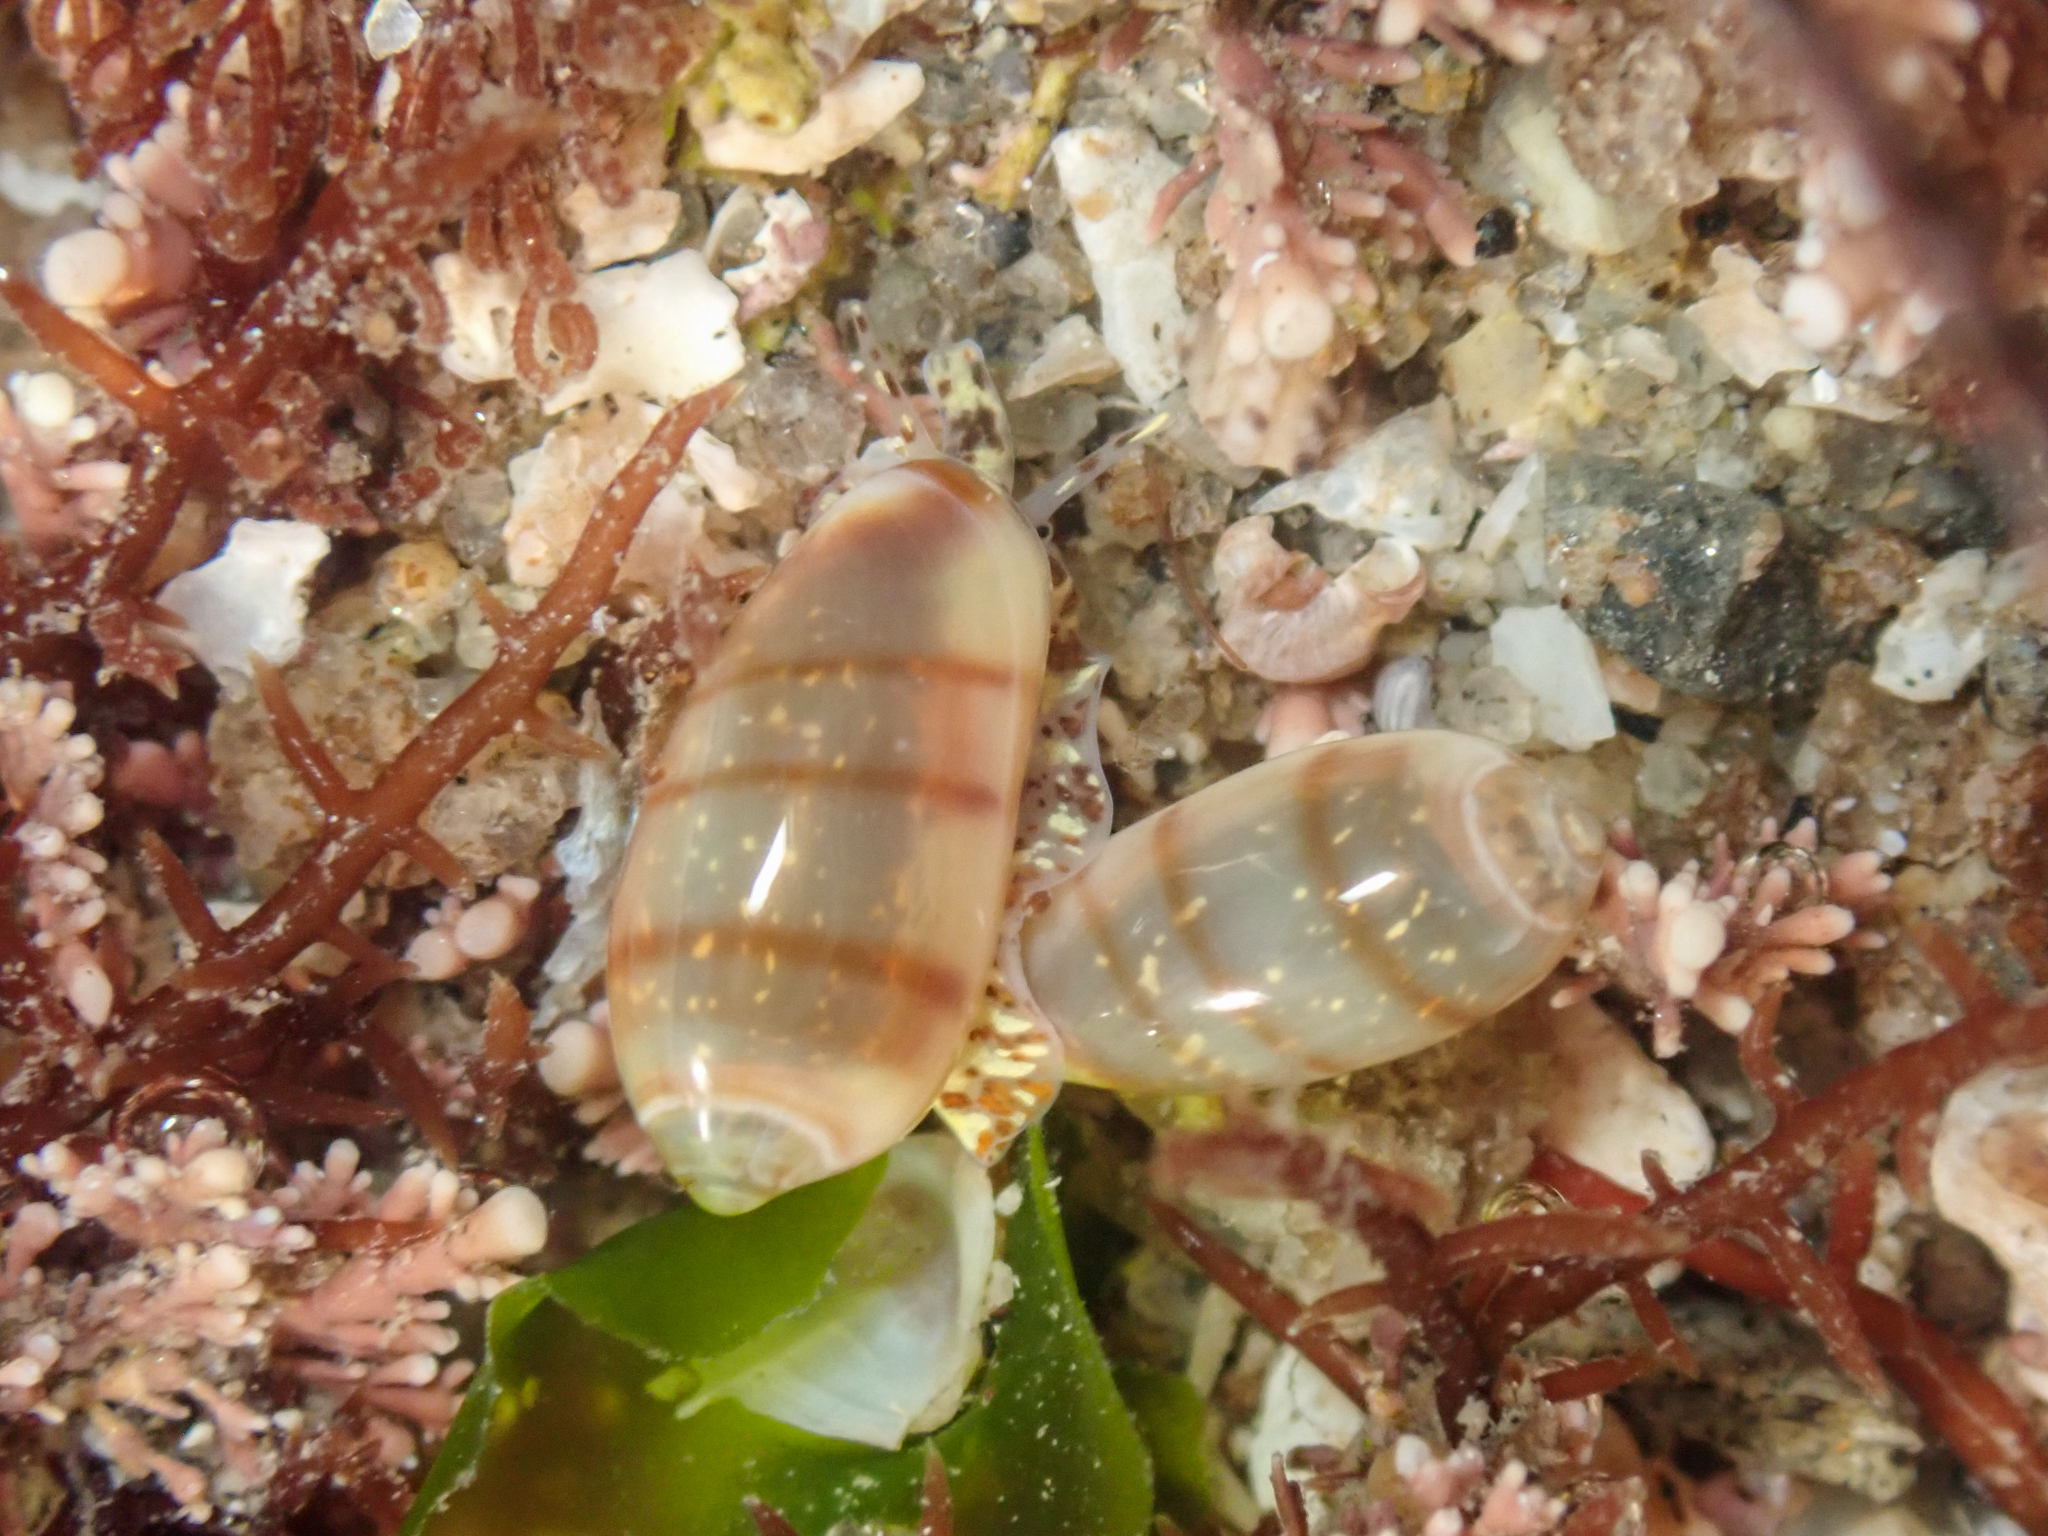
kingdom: Animalia
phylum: Mollusca
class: Gastropoda
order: Neogastropoda
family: Marginellidae
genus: Volvarina
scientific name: Volvarina taeniolata
